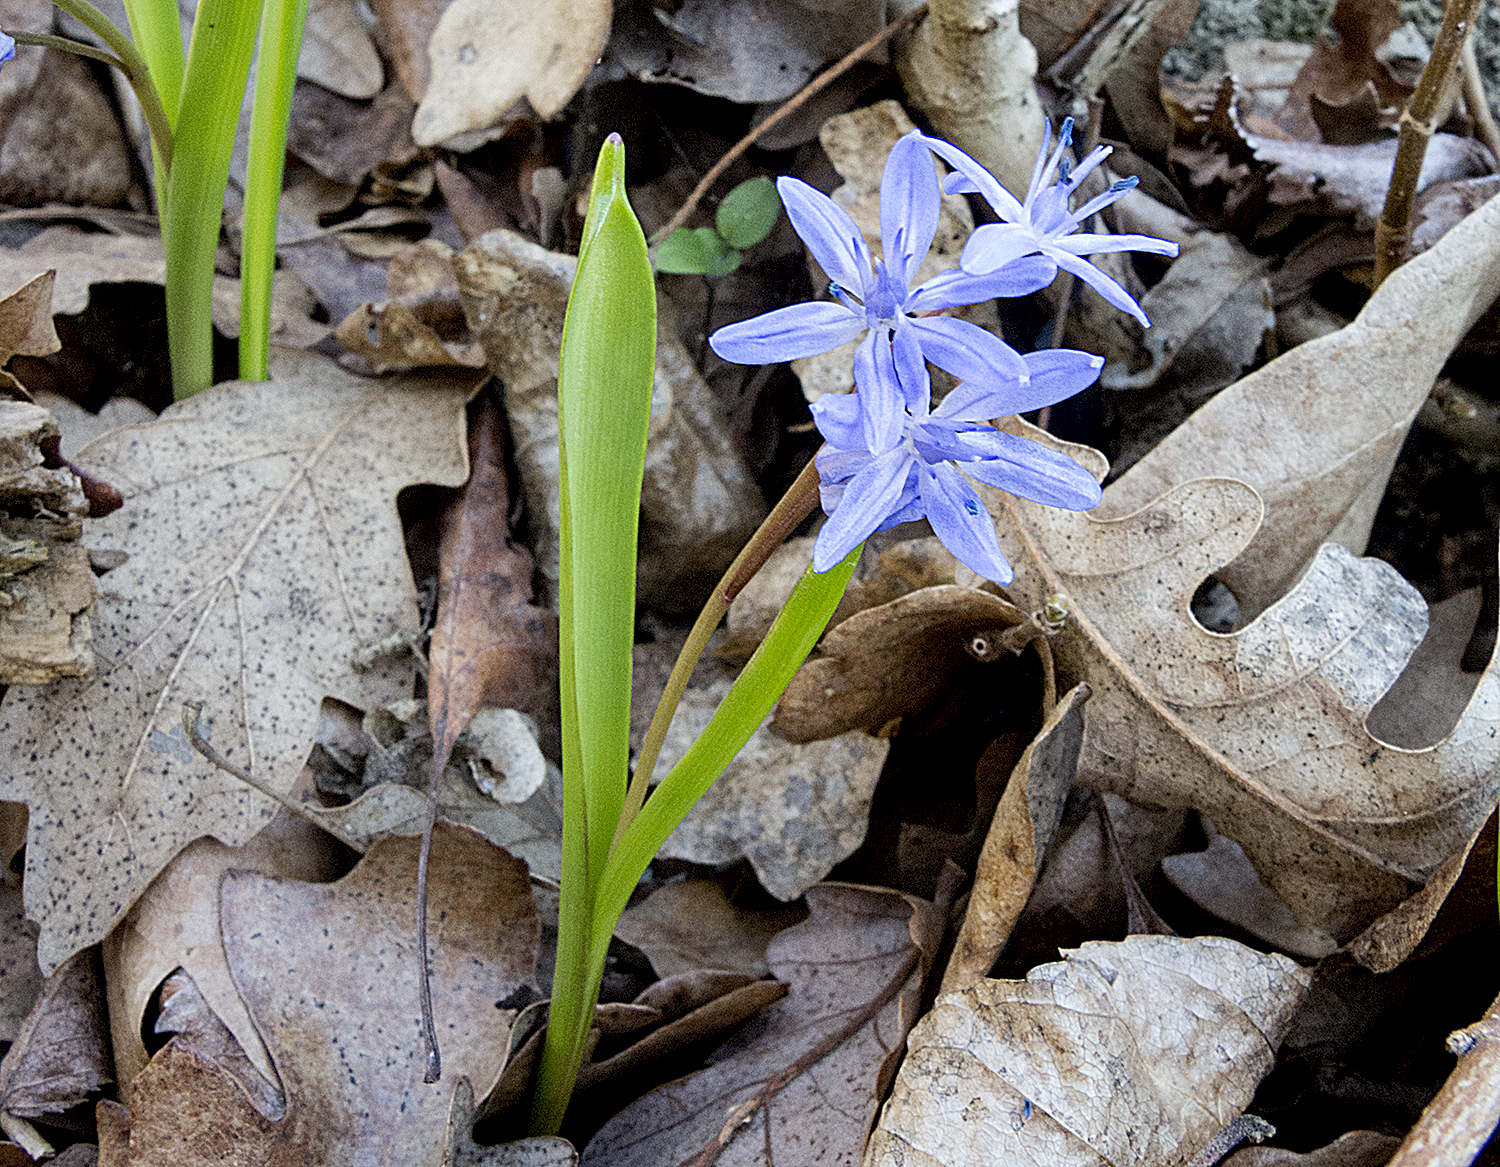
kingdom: Plantae
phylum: Tracheophyta
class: Liliopsida
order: Asparagales
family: Asparagaceae
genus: Scilla
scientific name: Scilla bifolia
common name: Alpine squill
